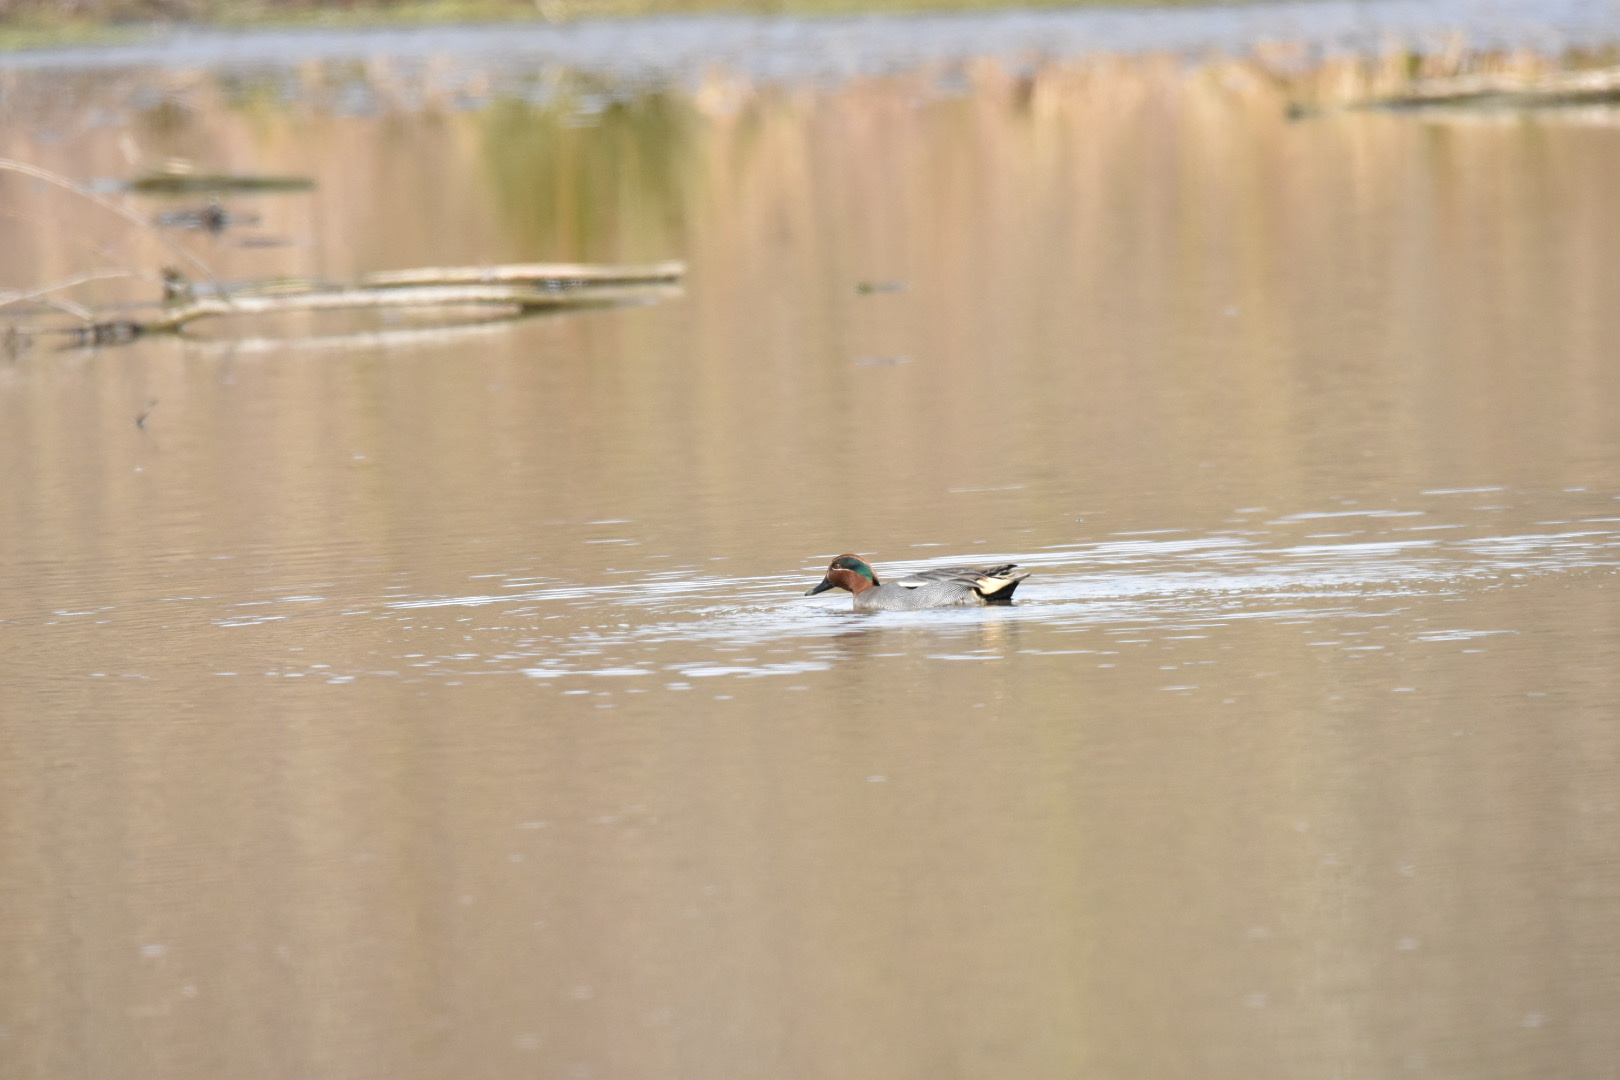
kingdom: Animalia
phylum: Chordata
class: Aves
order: Anseriformes
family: Anatidae
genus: Anas
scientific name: Anas crecca
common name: Eurasian teal
